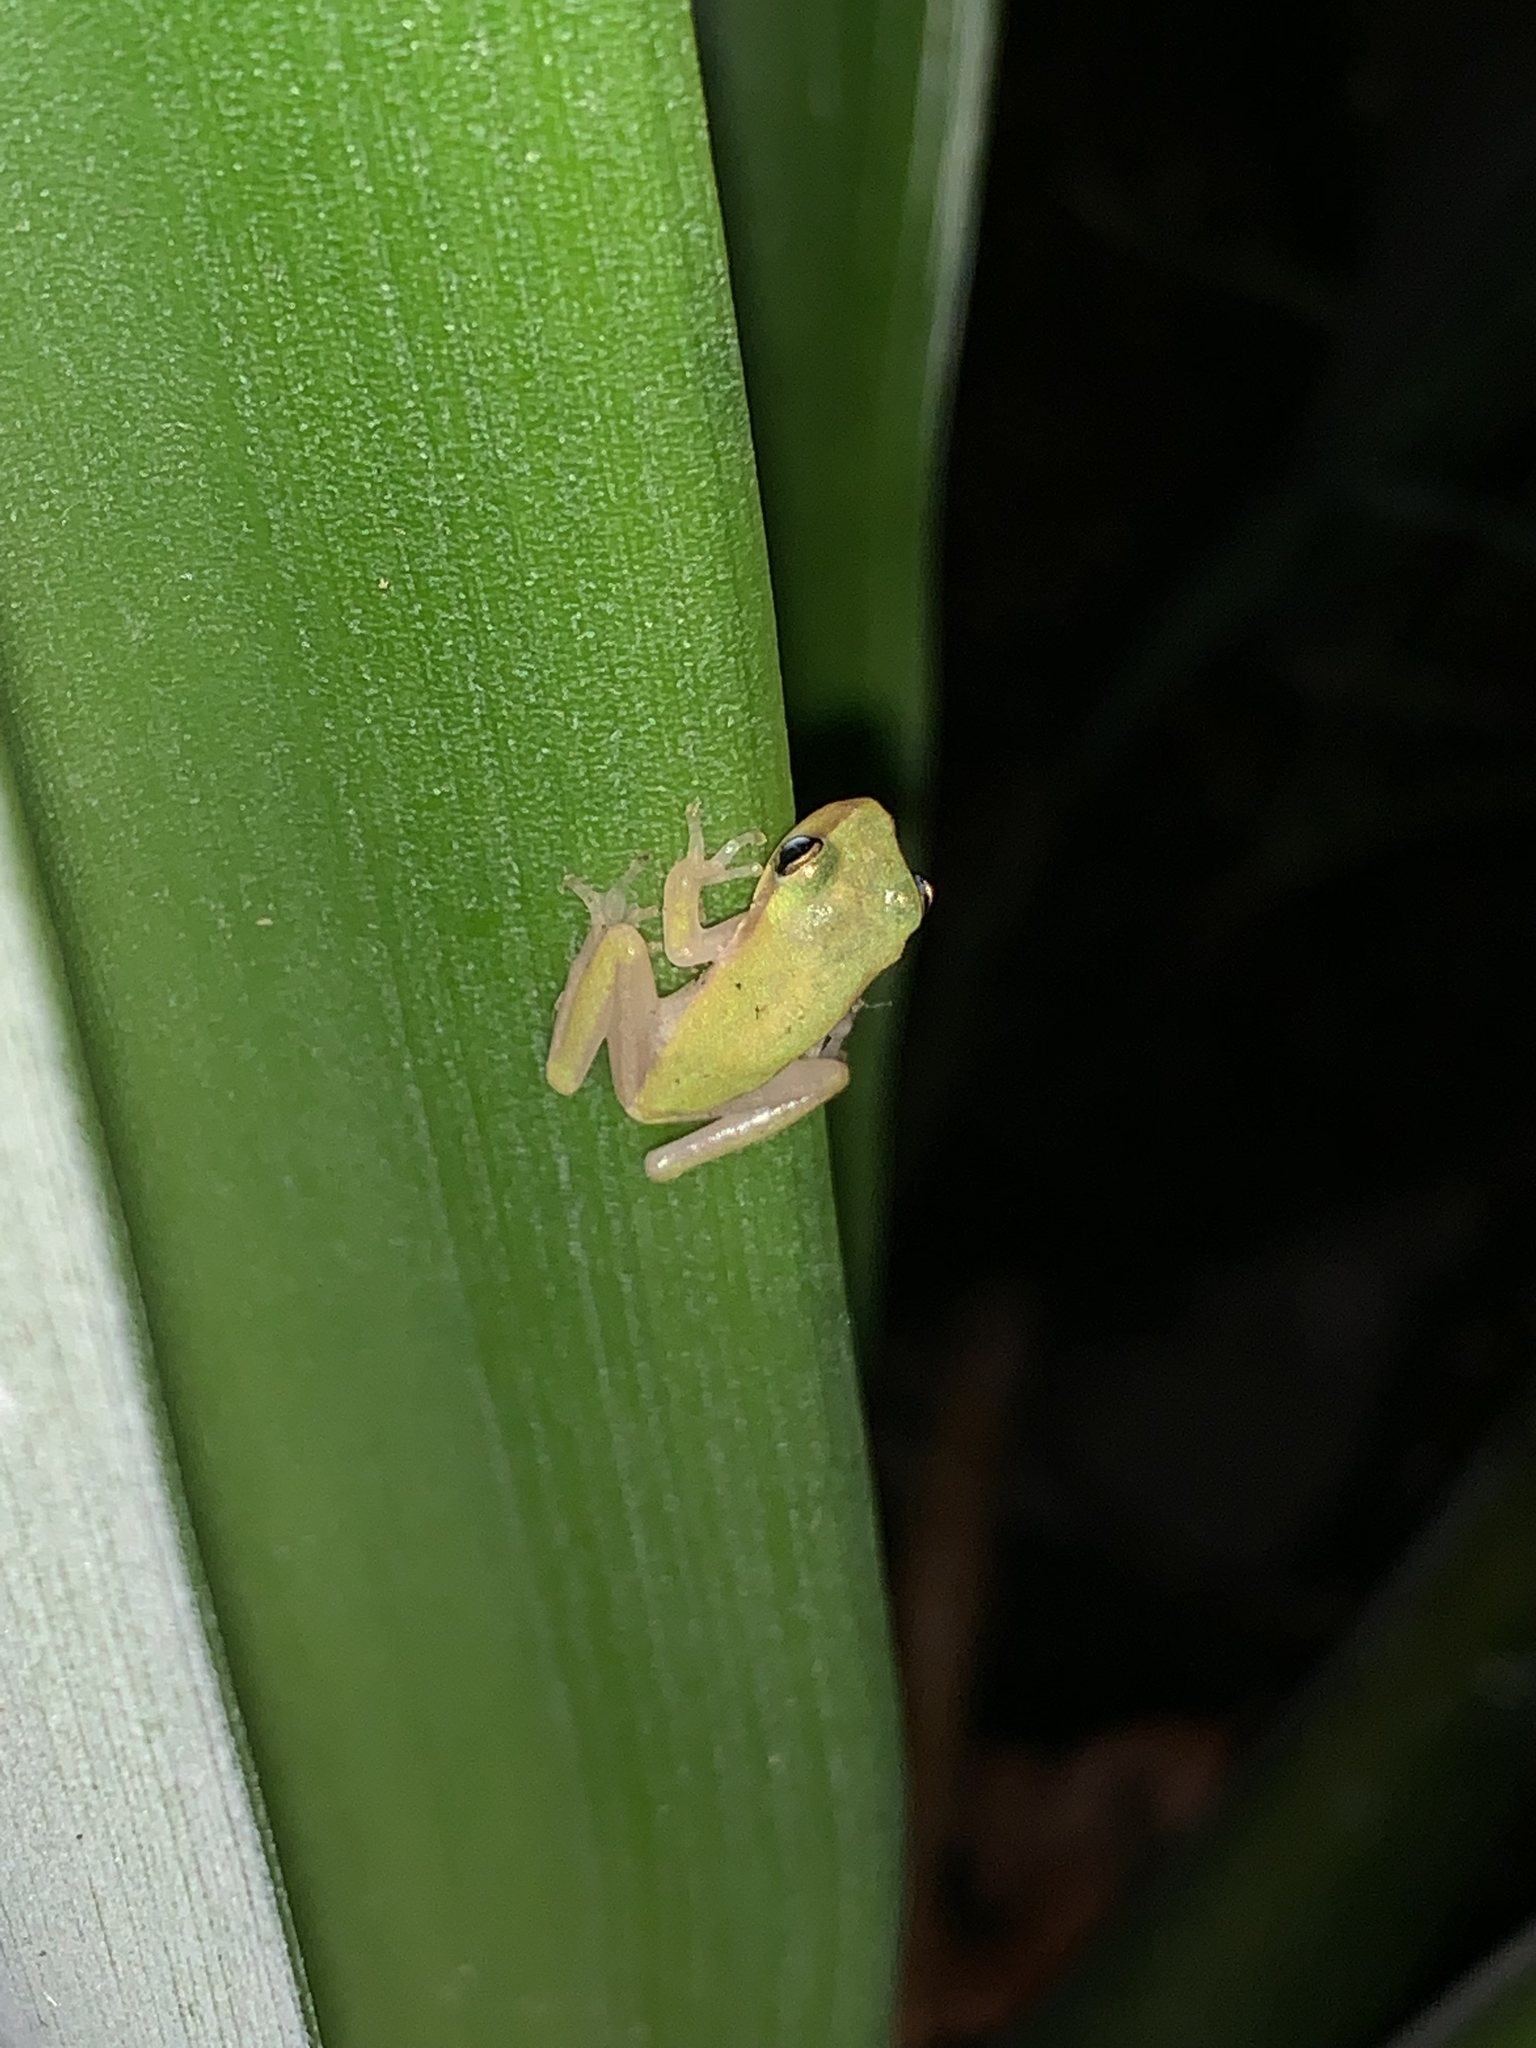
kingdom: Animalia
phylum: Chordata
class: Amphibia
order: Anura
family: Hylidae
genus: Hyla
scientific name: Hyla
